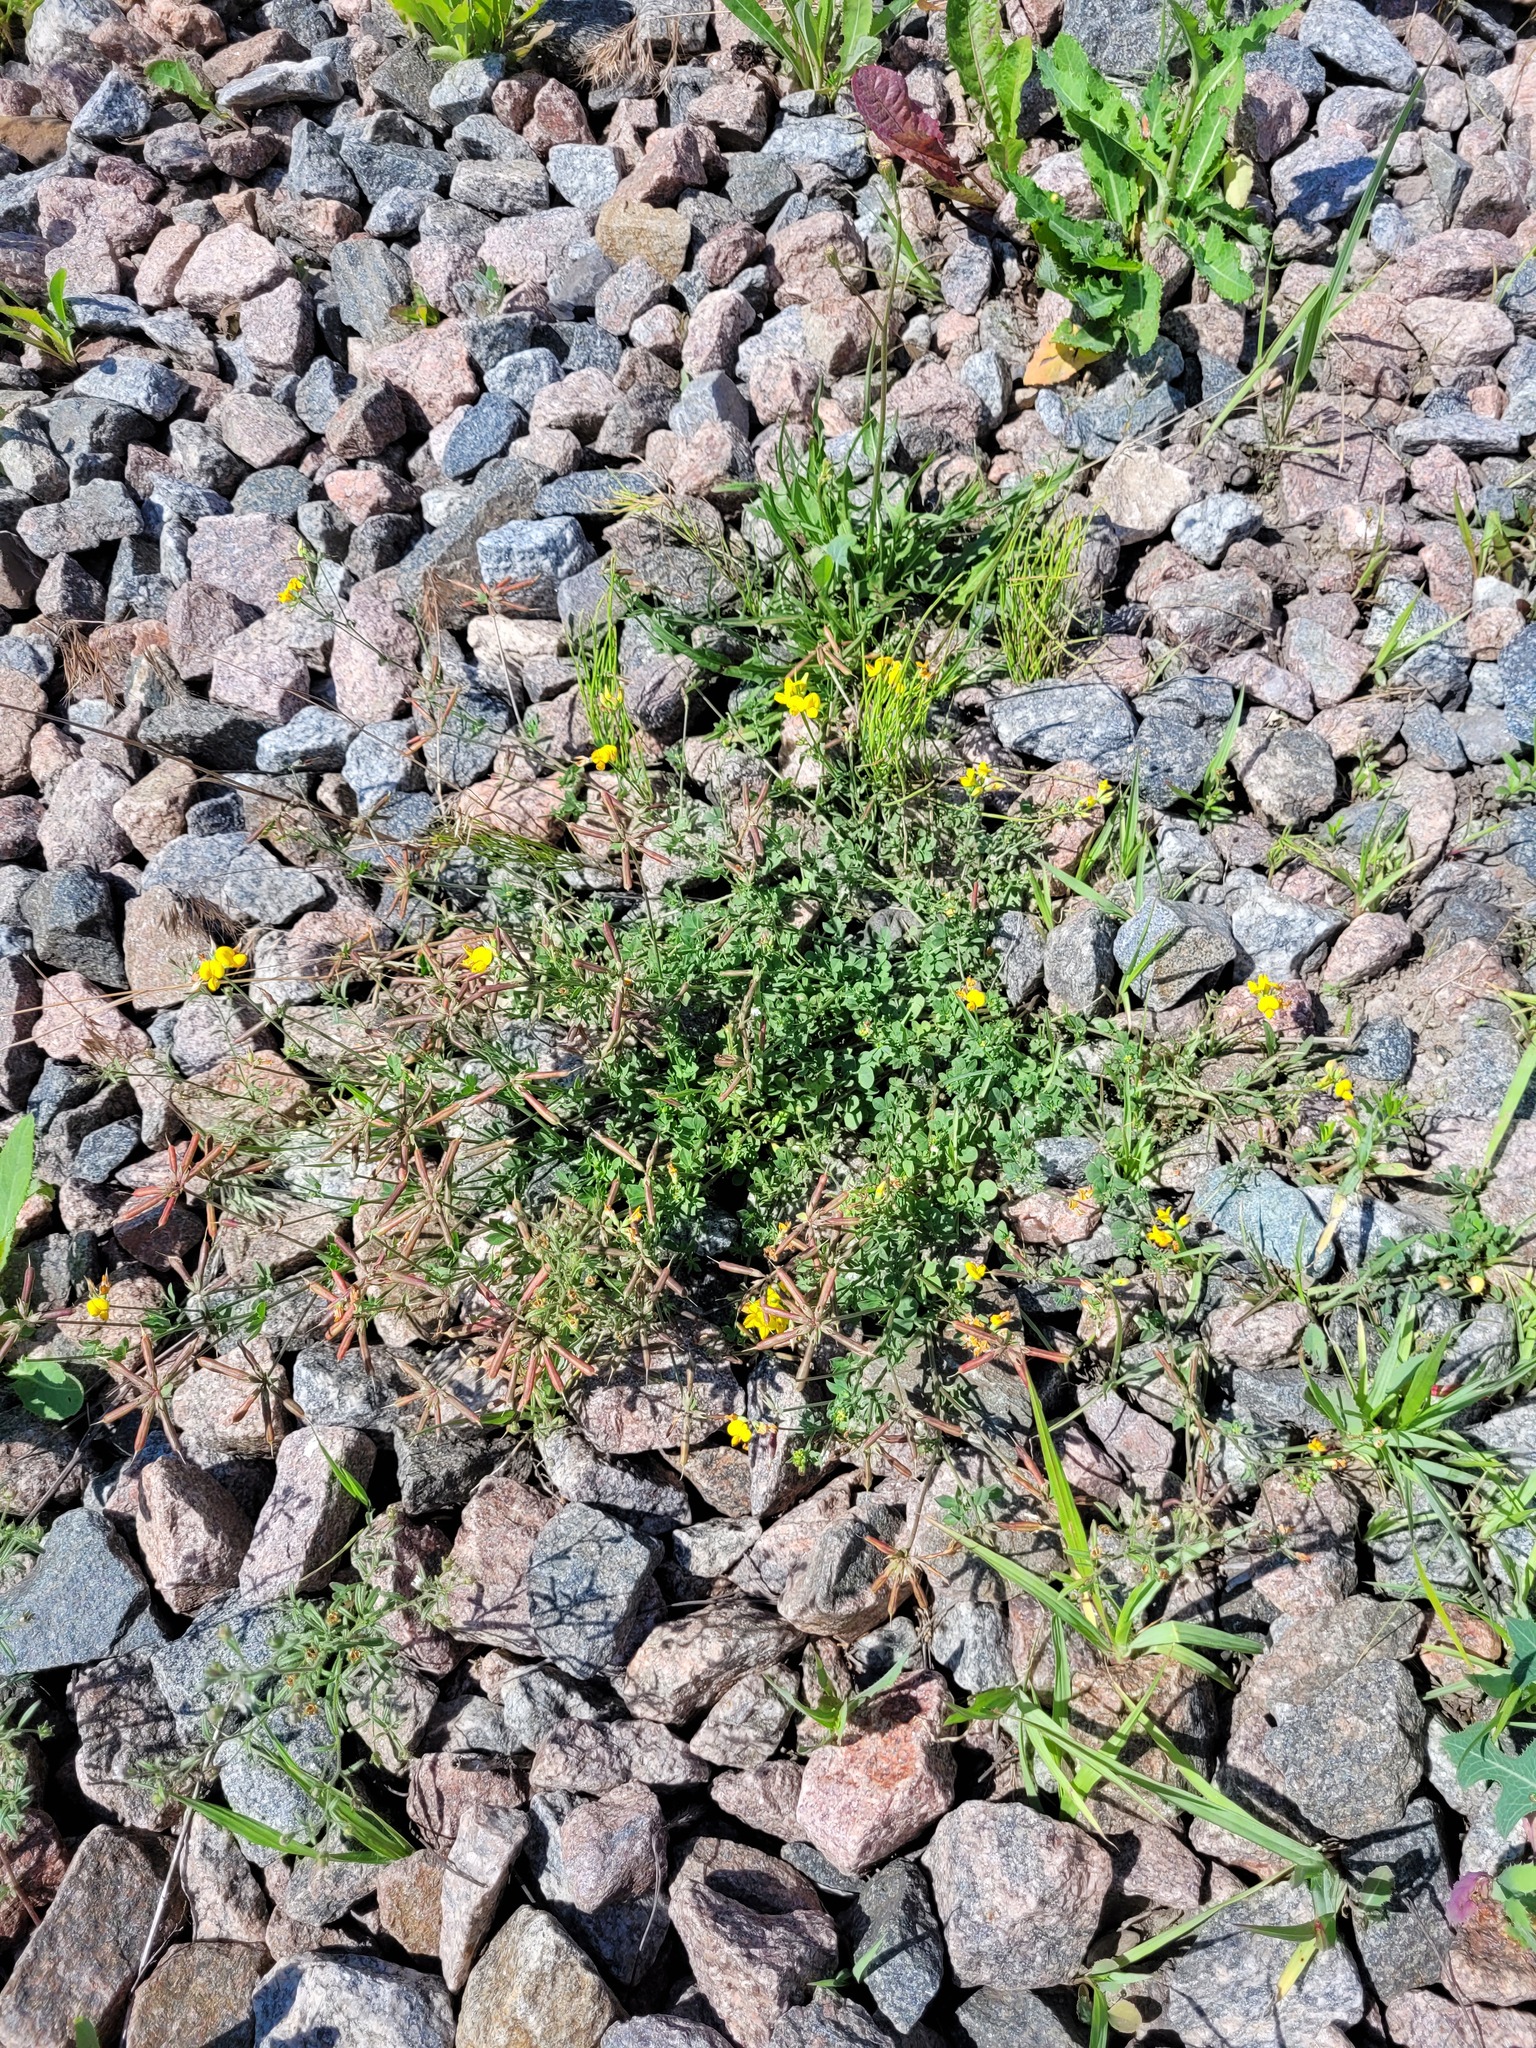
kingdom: Plantae
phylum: Tracheophyta
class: Magnoliopsida
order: Fabales
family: Fabaceae
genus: Lotus
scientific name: Lotus corniculatus
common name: Common bird's-foot-trefoil
